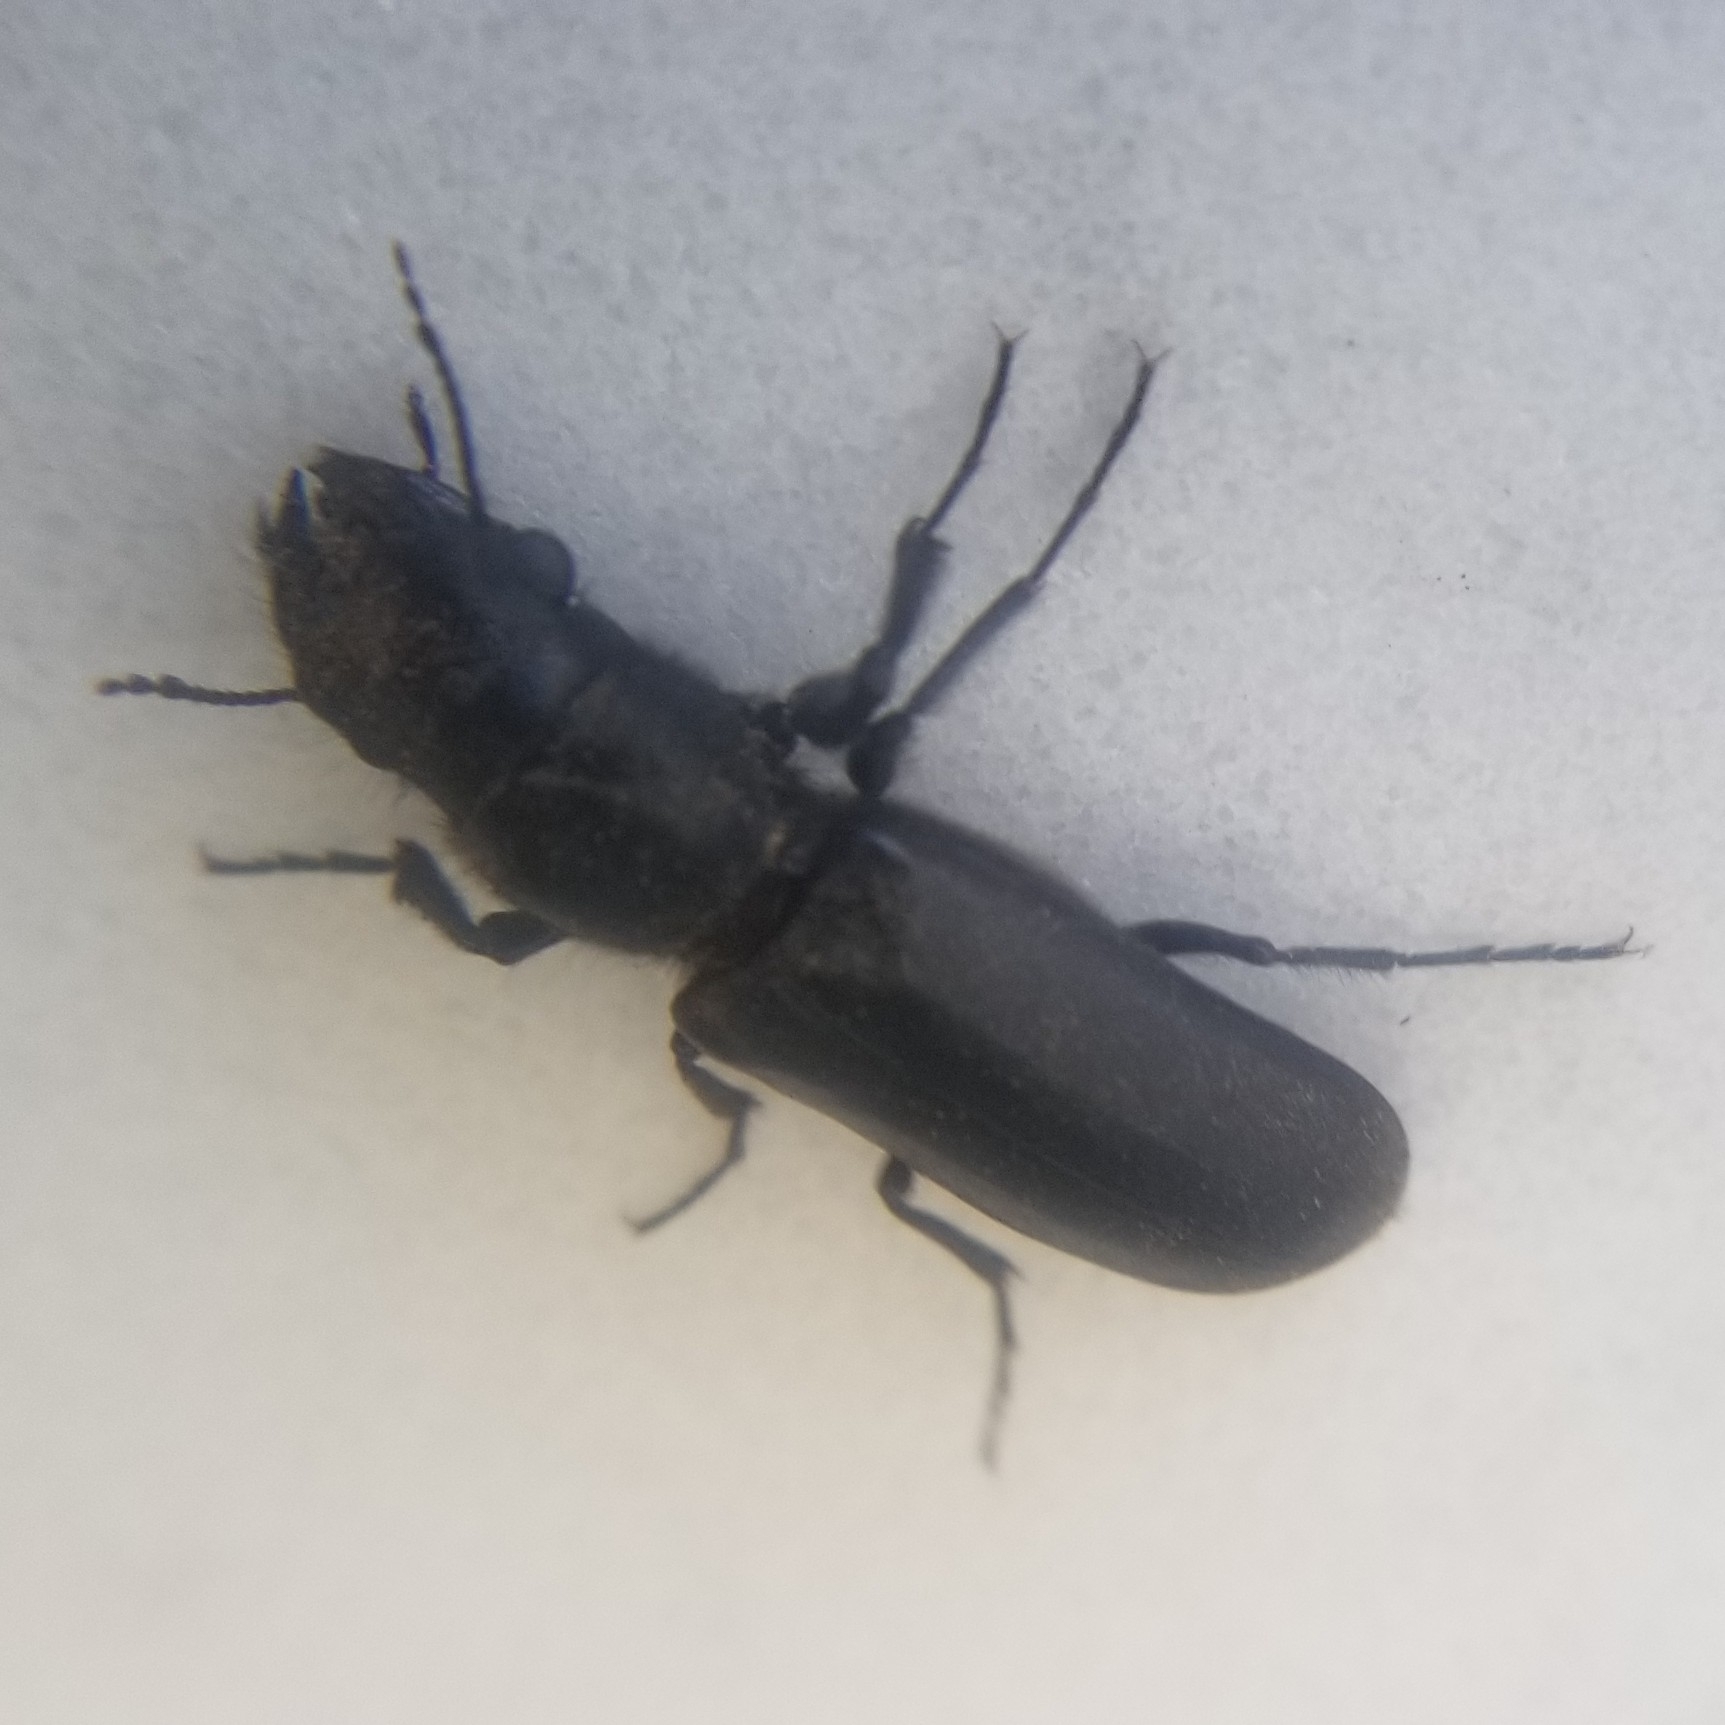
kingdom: Animalia
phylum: Arthropoda
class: Insecta
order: Coleoptera
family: Bostrichidae
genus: Polycaon
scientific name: Polycaon stoutii
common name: Powderpost beetle
